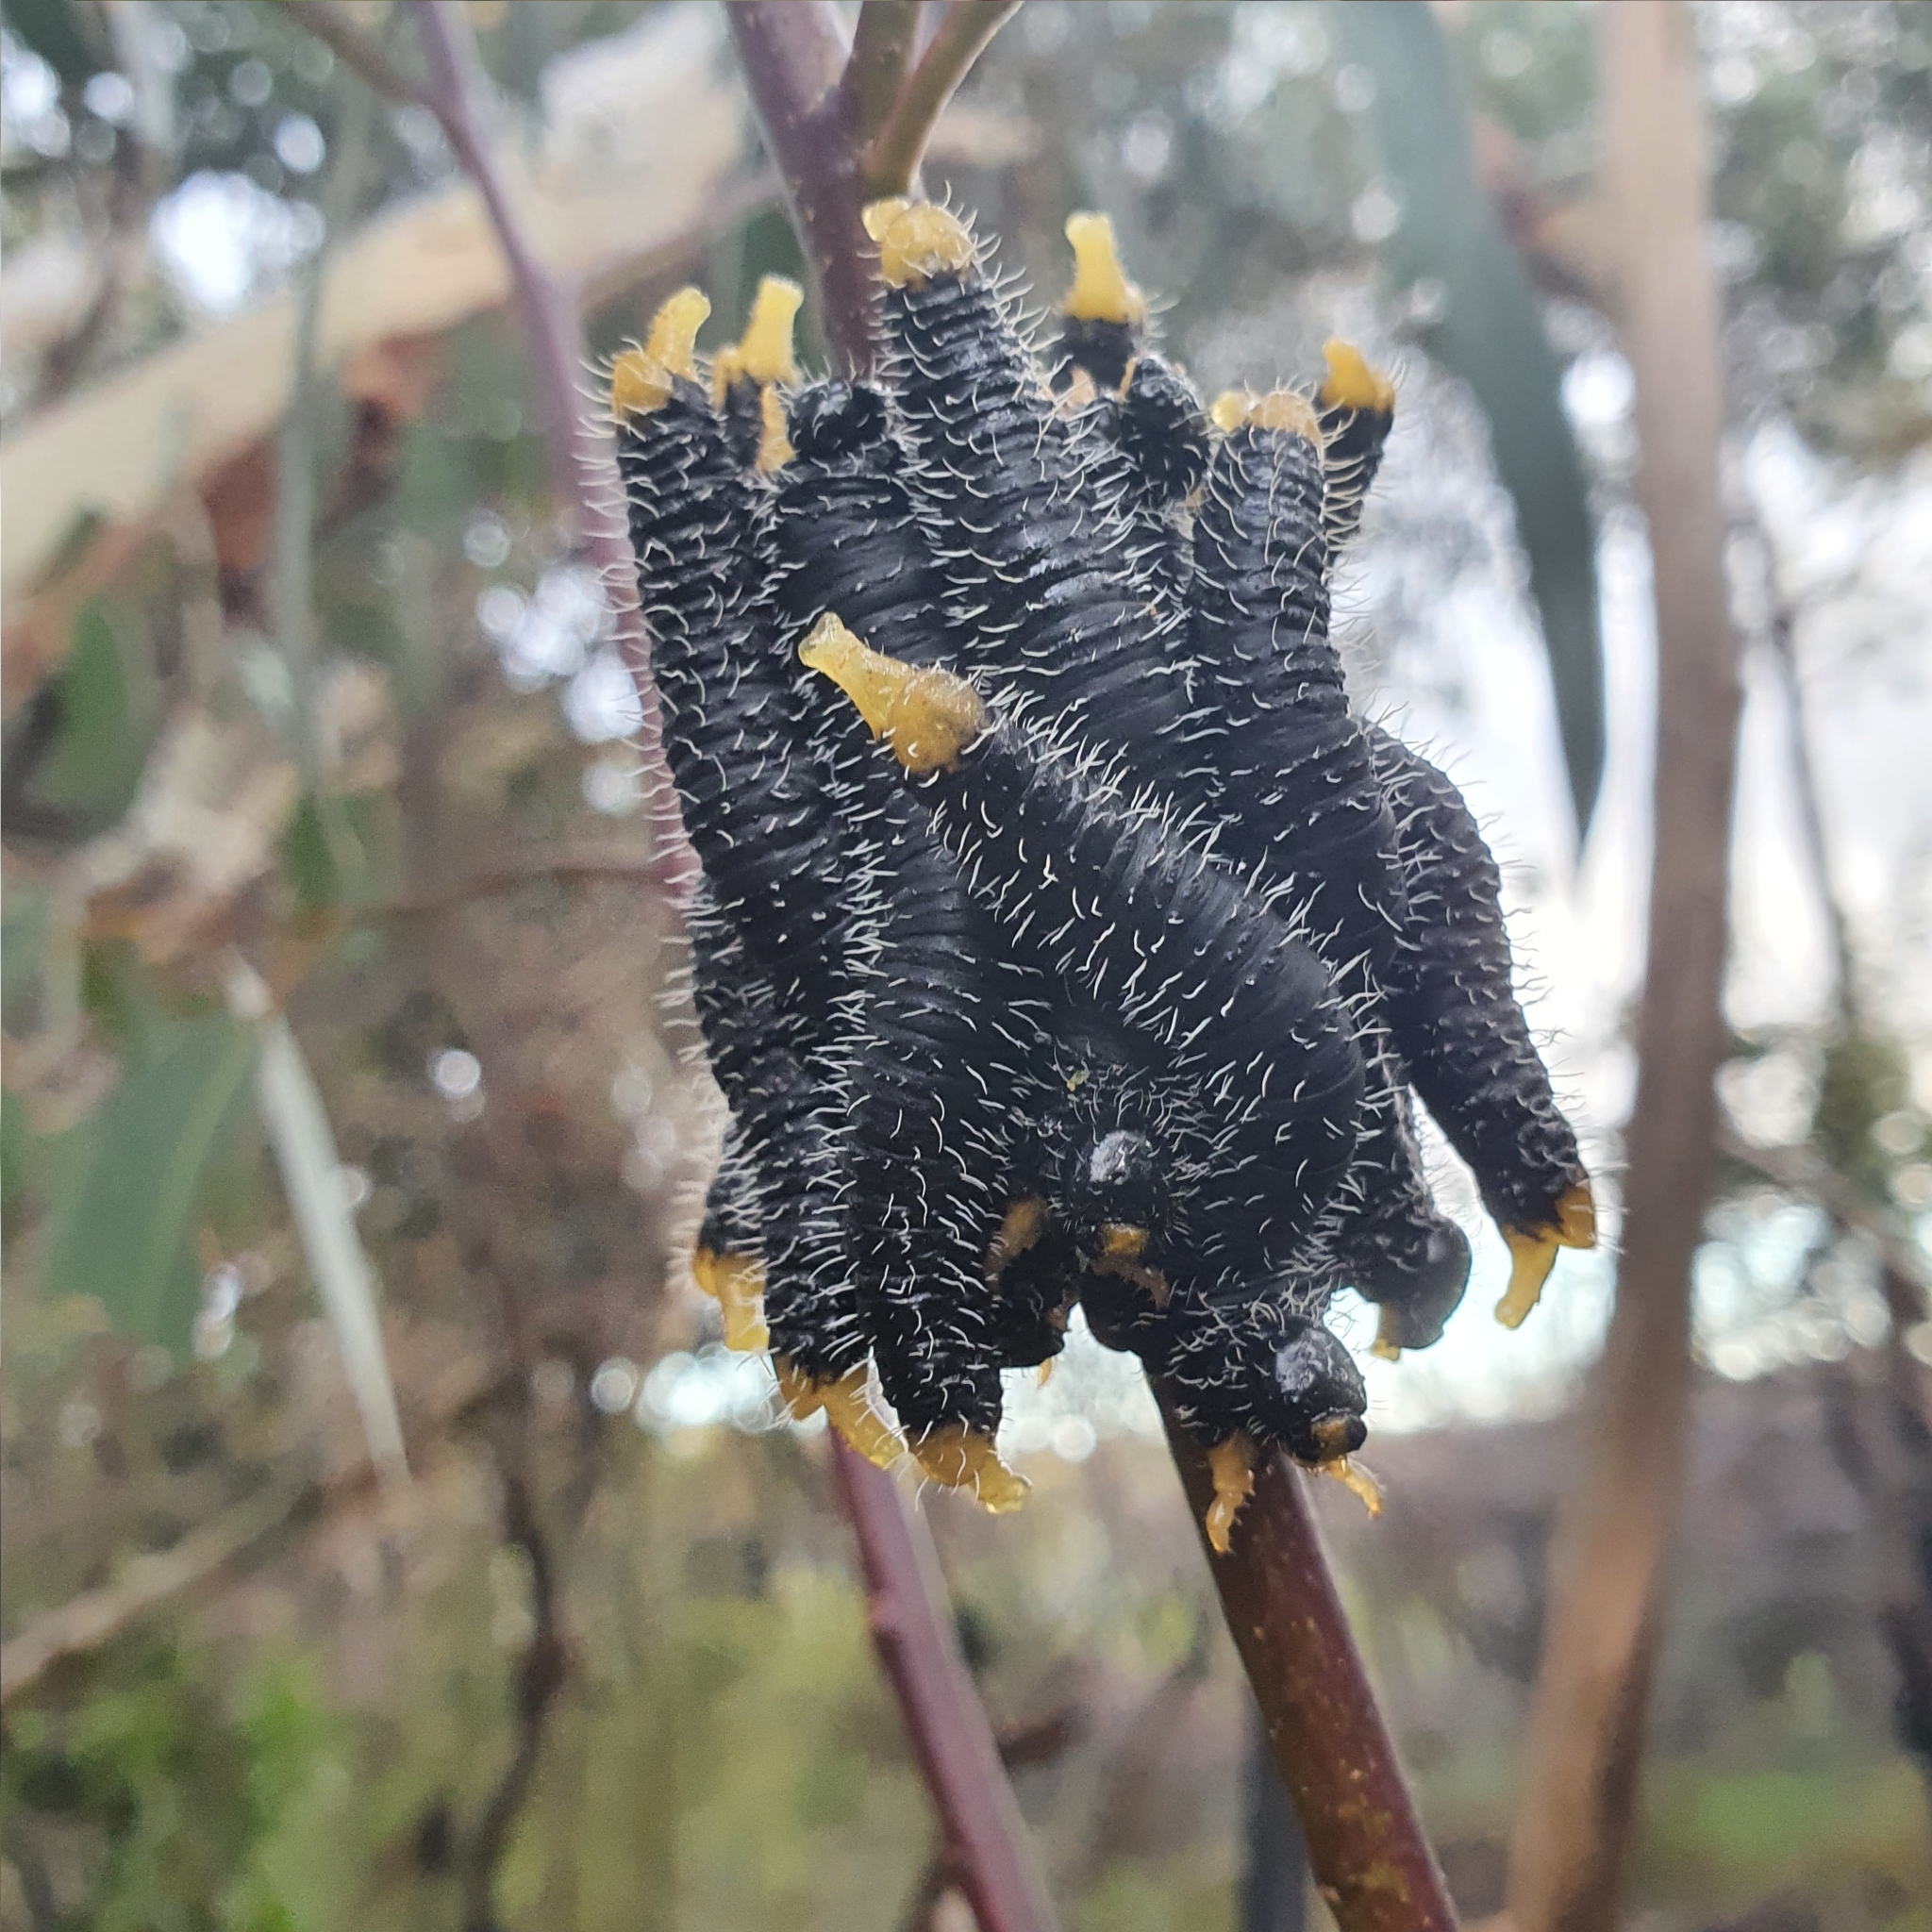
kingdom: Animalia
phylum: Arthropoda
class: Insecta
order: Hymenoptera
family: Pergidae
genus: Perga
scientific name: Perga affinis
